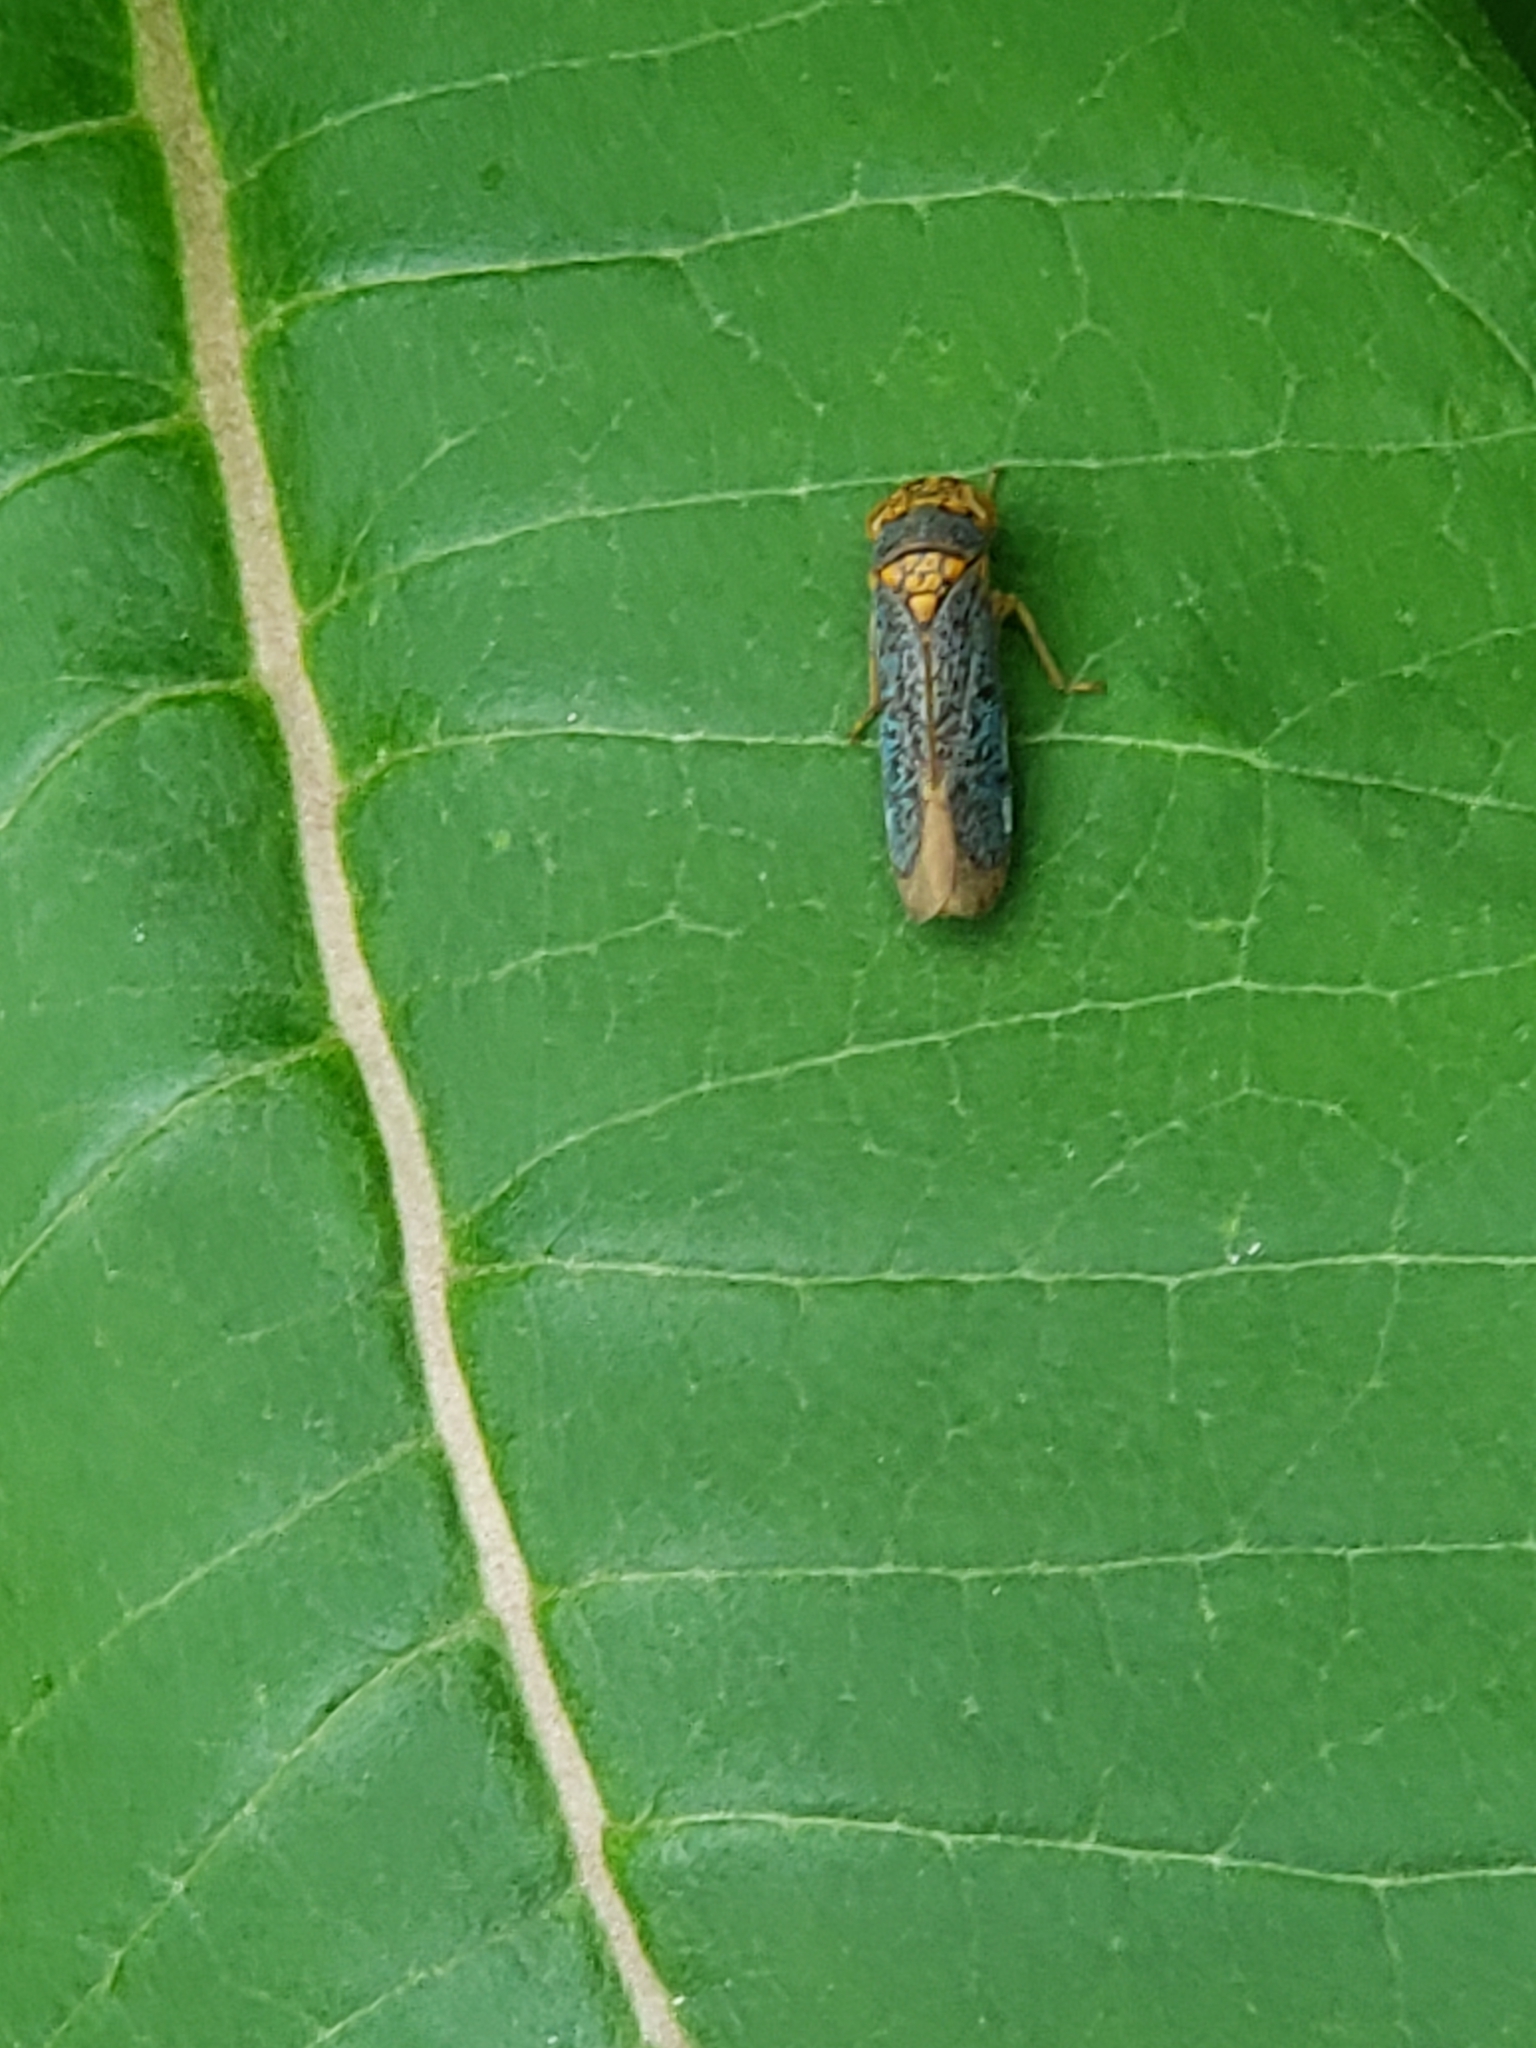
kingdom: Animalia
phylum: Arthropoda
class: Insecta
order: Hemiptera
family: Cicadellidae
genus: Oncometopia
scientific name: Oncometopia orbona
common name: Broad-headed sharpshooter
